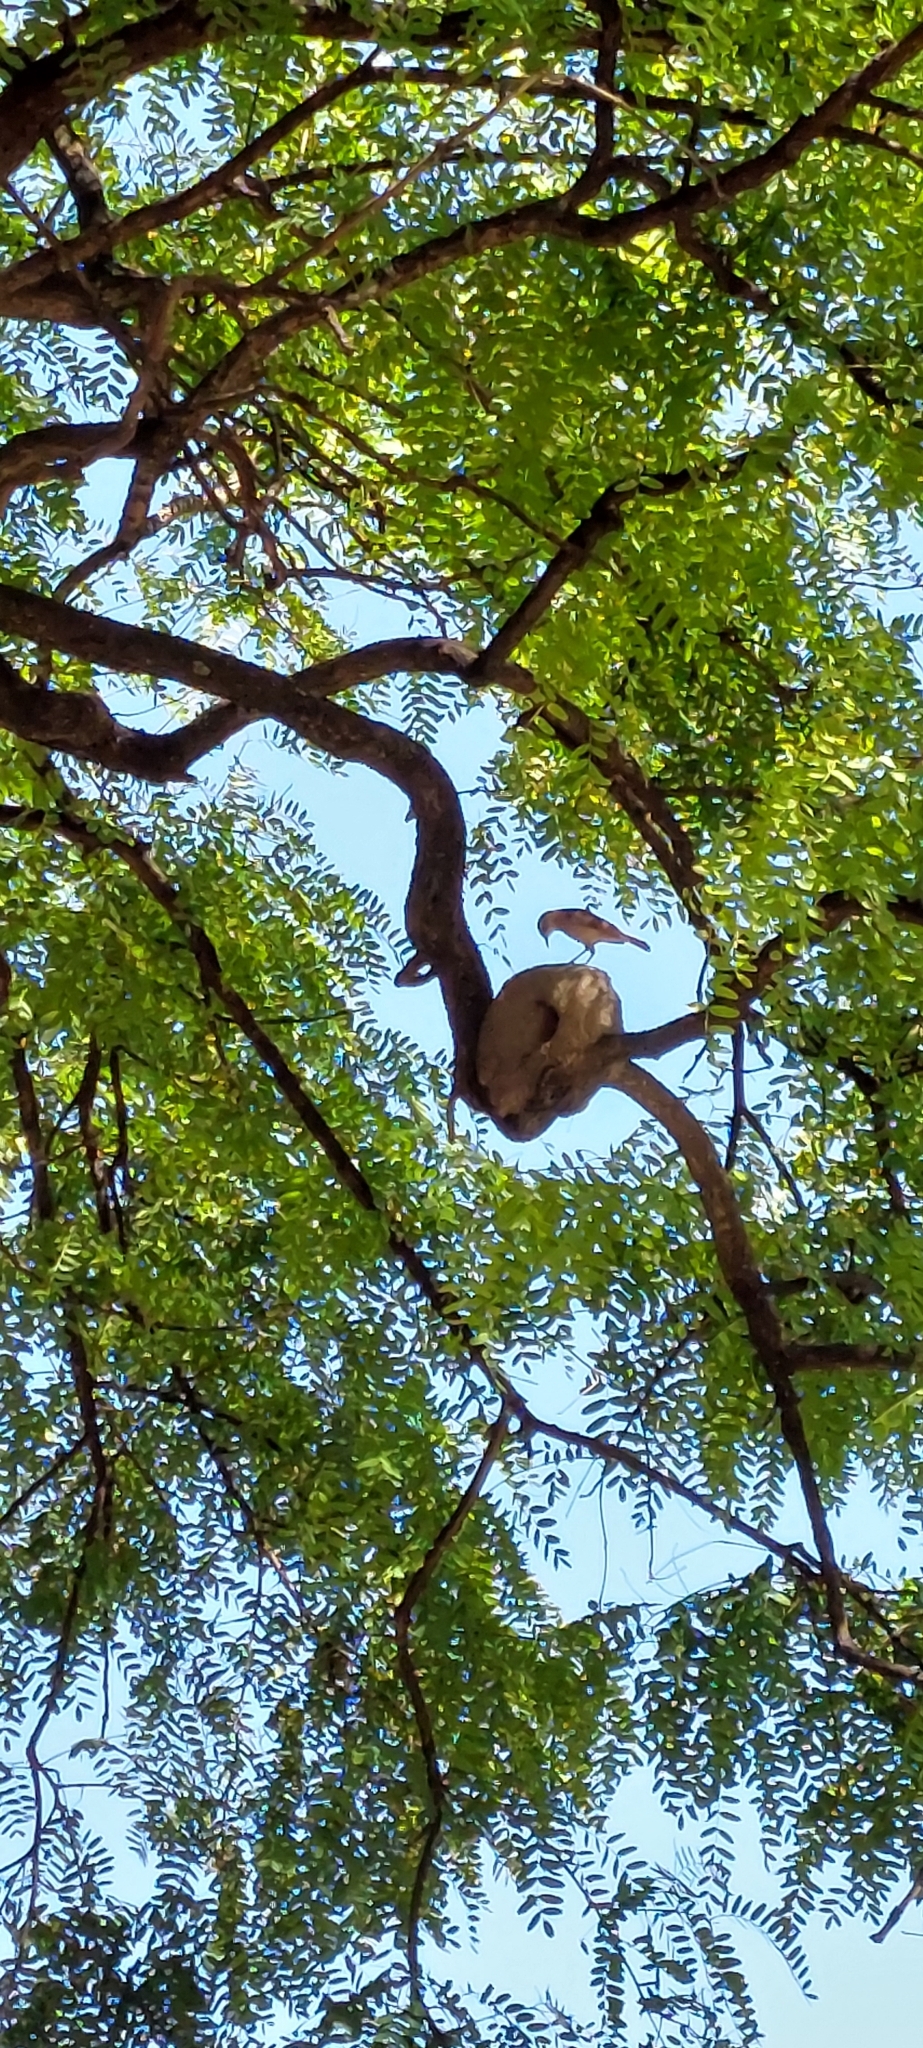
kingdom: Animalia
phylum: Chordata
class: Aves
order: Passeriformes
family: Furnariidae
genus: Furnarius
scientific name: Furnarius rufus
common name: Rufous hornero
